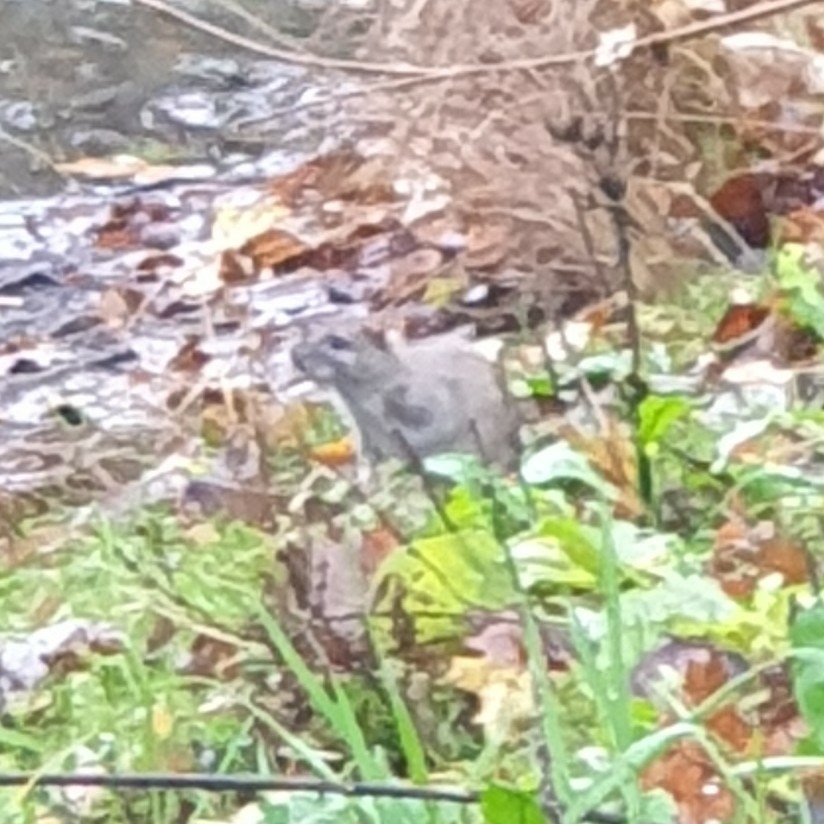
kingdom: Animalia
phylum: Chordata
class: Mammalia
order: Rodentia
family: Muridae
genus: Rattus
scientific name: Rattus norvegicus
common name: Brown rat
